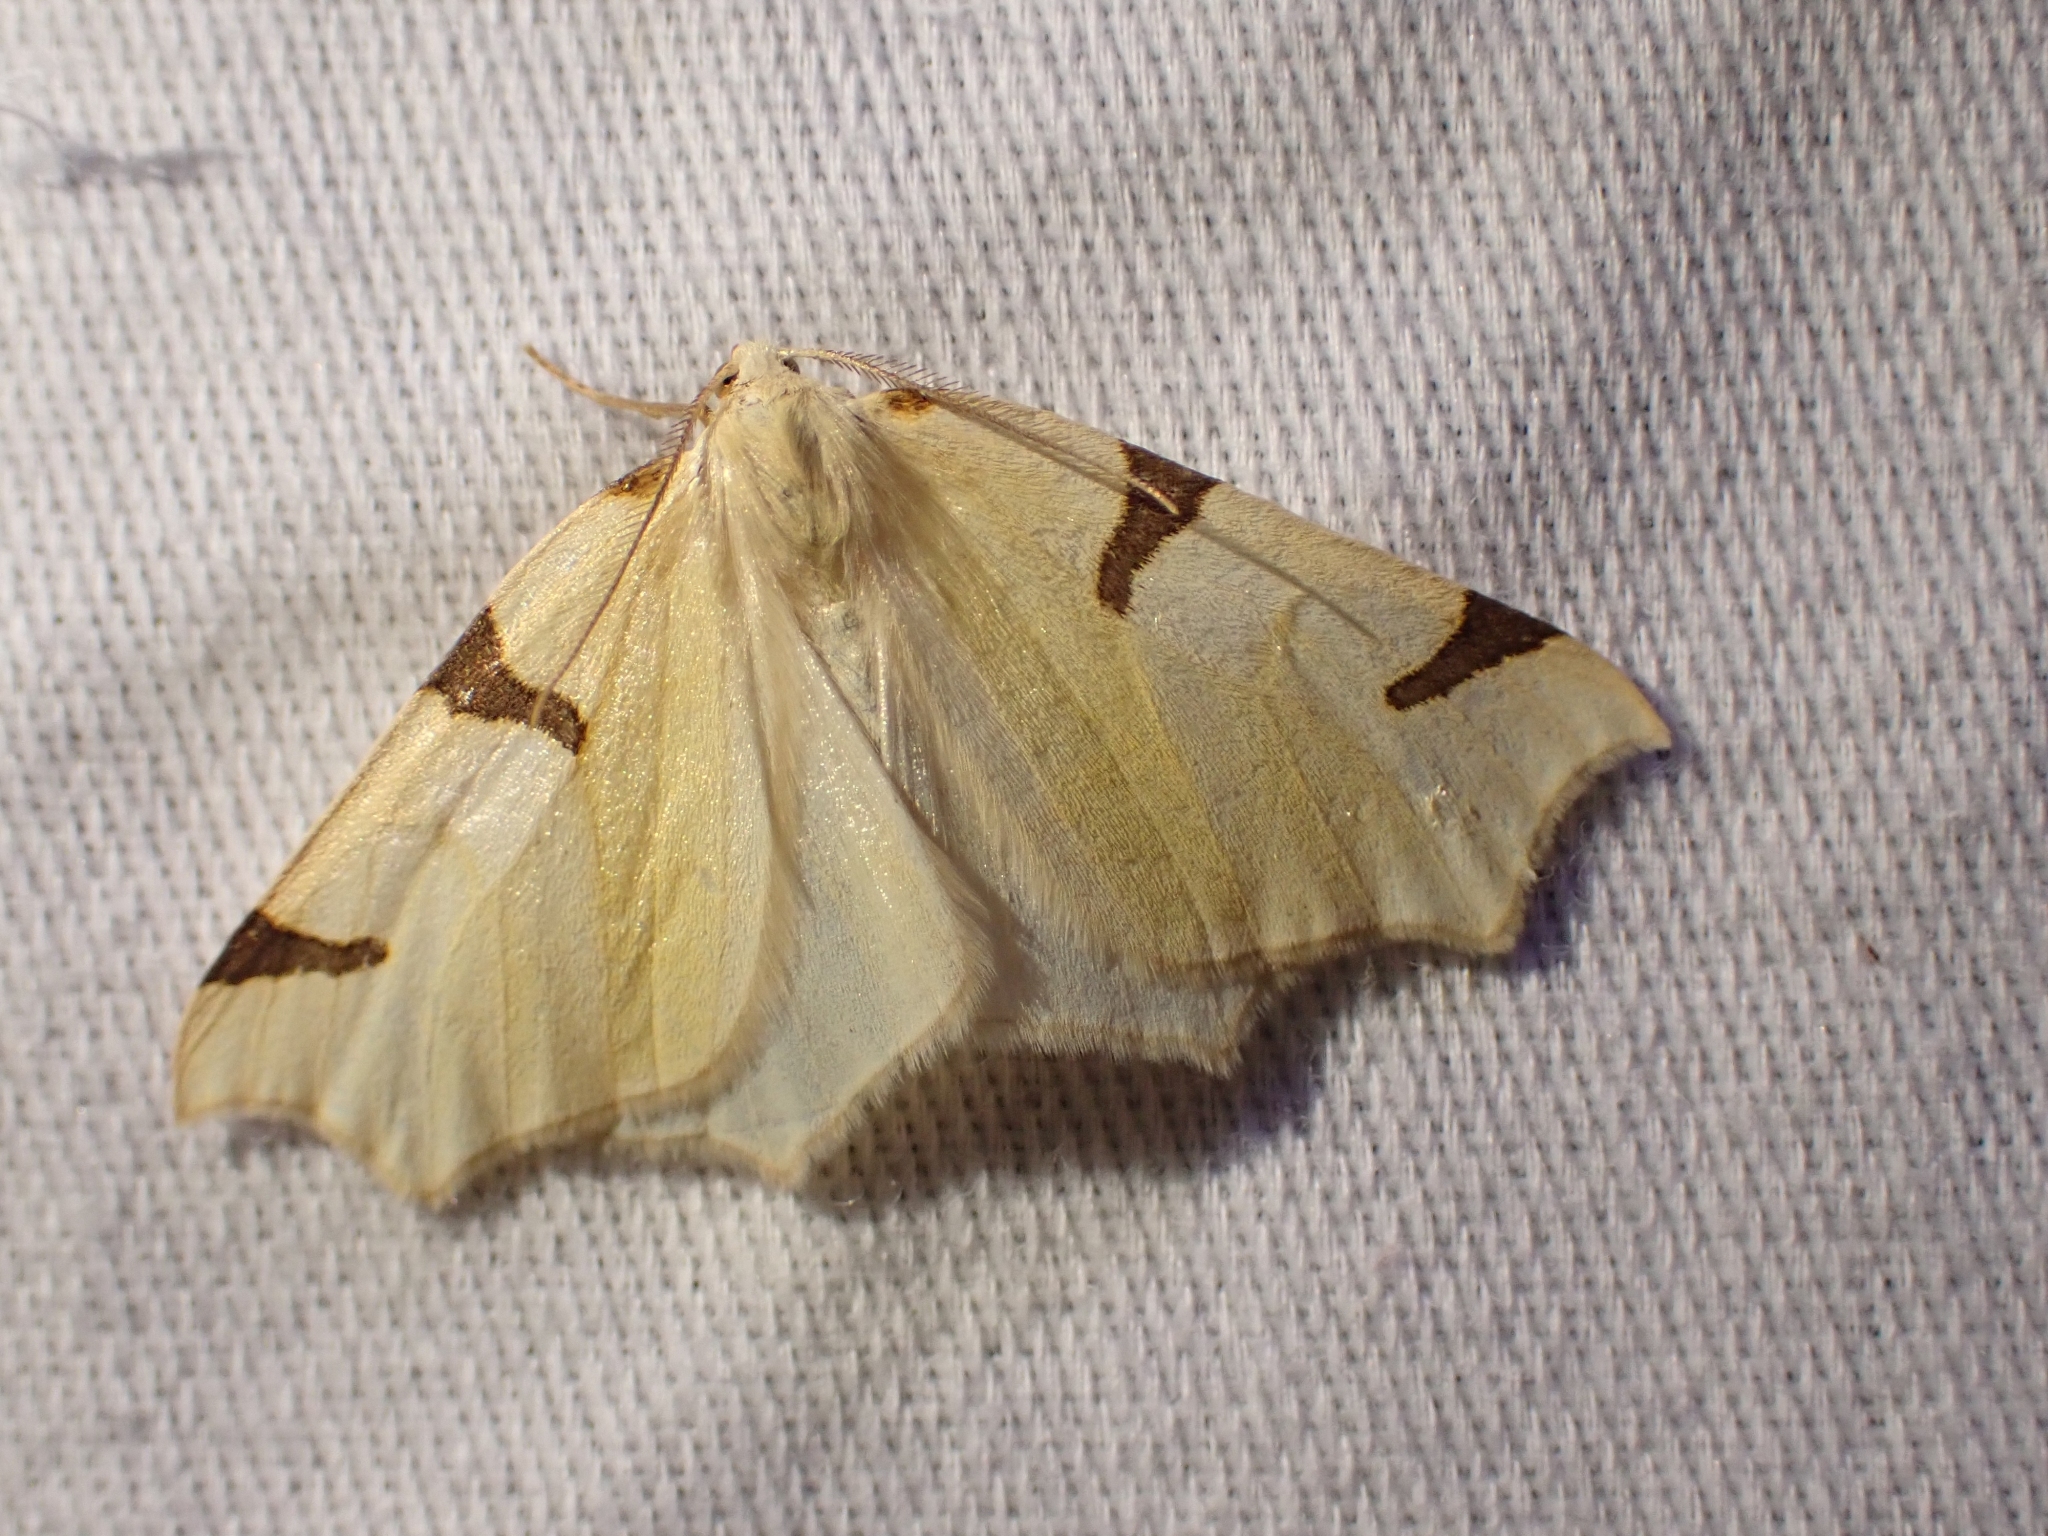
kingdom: Animalia
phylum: Arthropoda
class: Insecta
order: Lepidoptera
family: Geometridae
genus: Neoterpes
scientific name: Neoterpes trianguliferata
